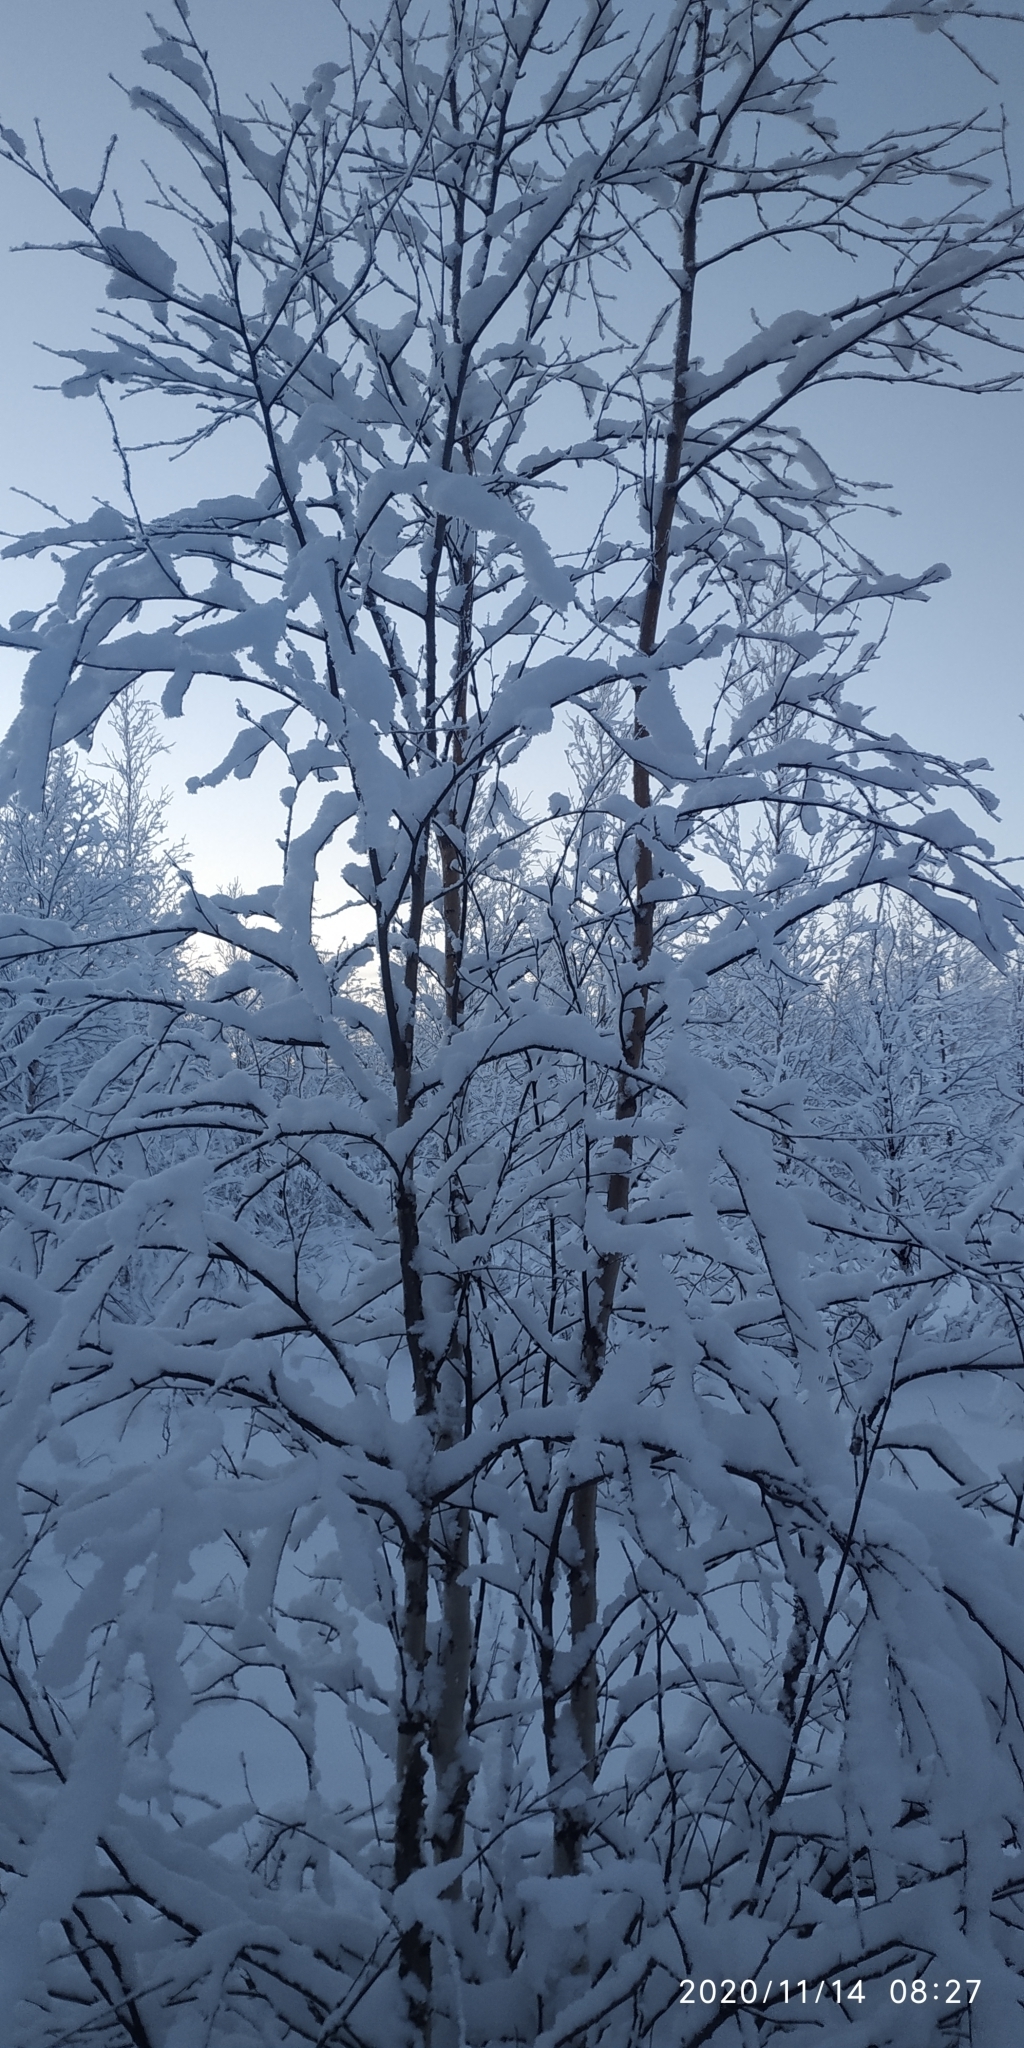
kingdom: Plantae
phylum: Tracheophyta
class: Magnoliopsida
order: Fagales
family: Betulaceae
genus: Betula
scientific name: Betula pubescens
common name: Downy birch
